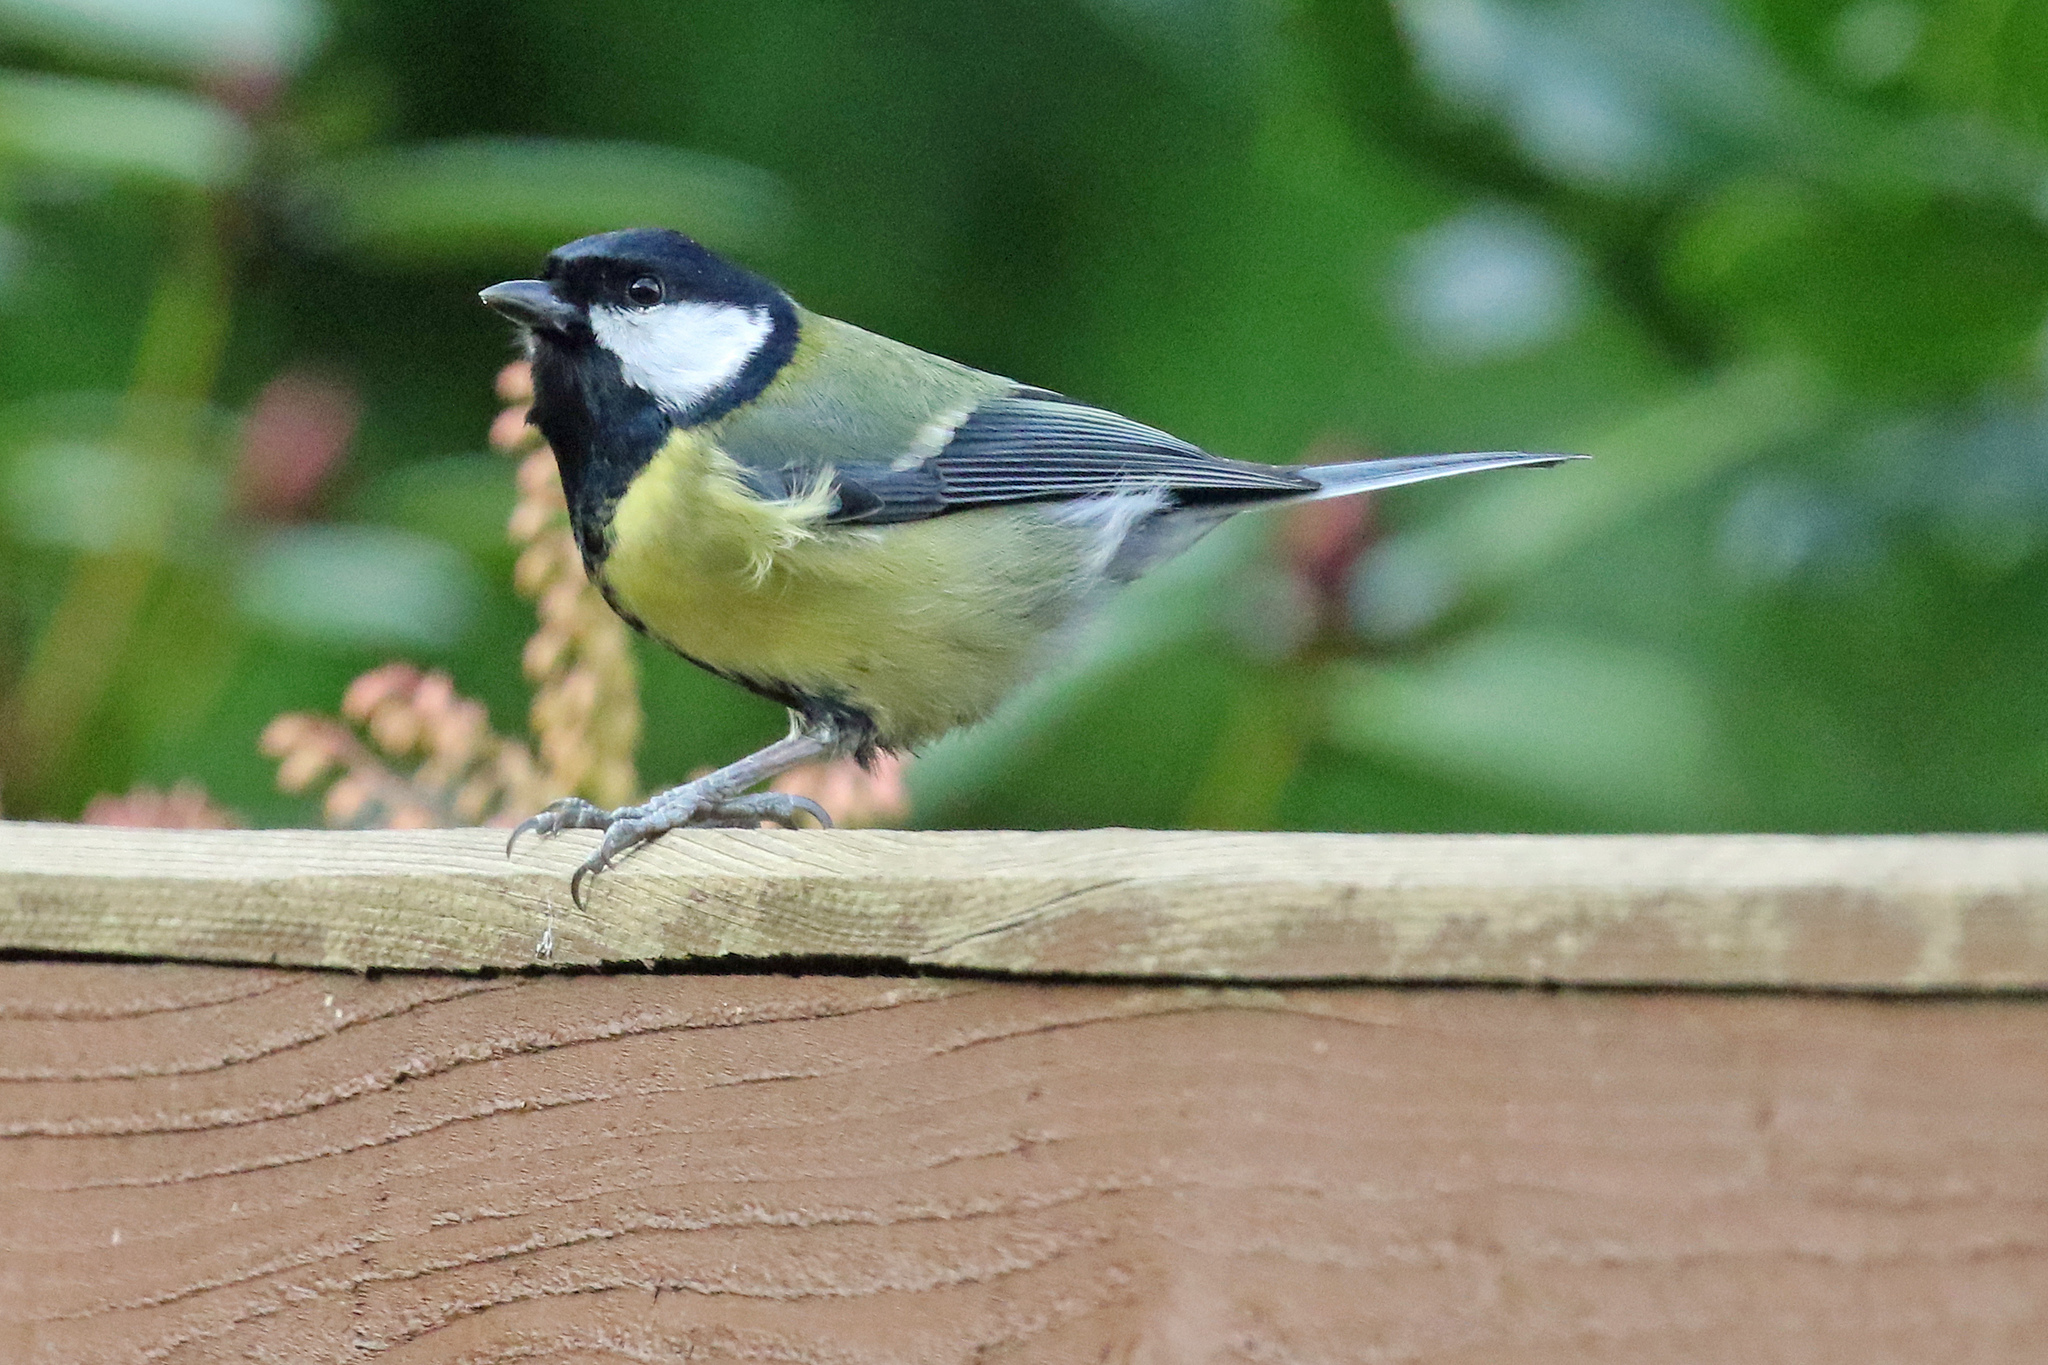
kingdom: Animalia
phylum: Chordata
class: Aves
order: Passeriformes
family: Paridae
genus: Parus
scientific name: Parus major
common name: Great tit
